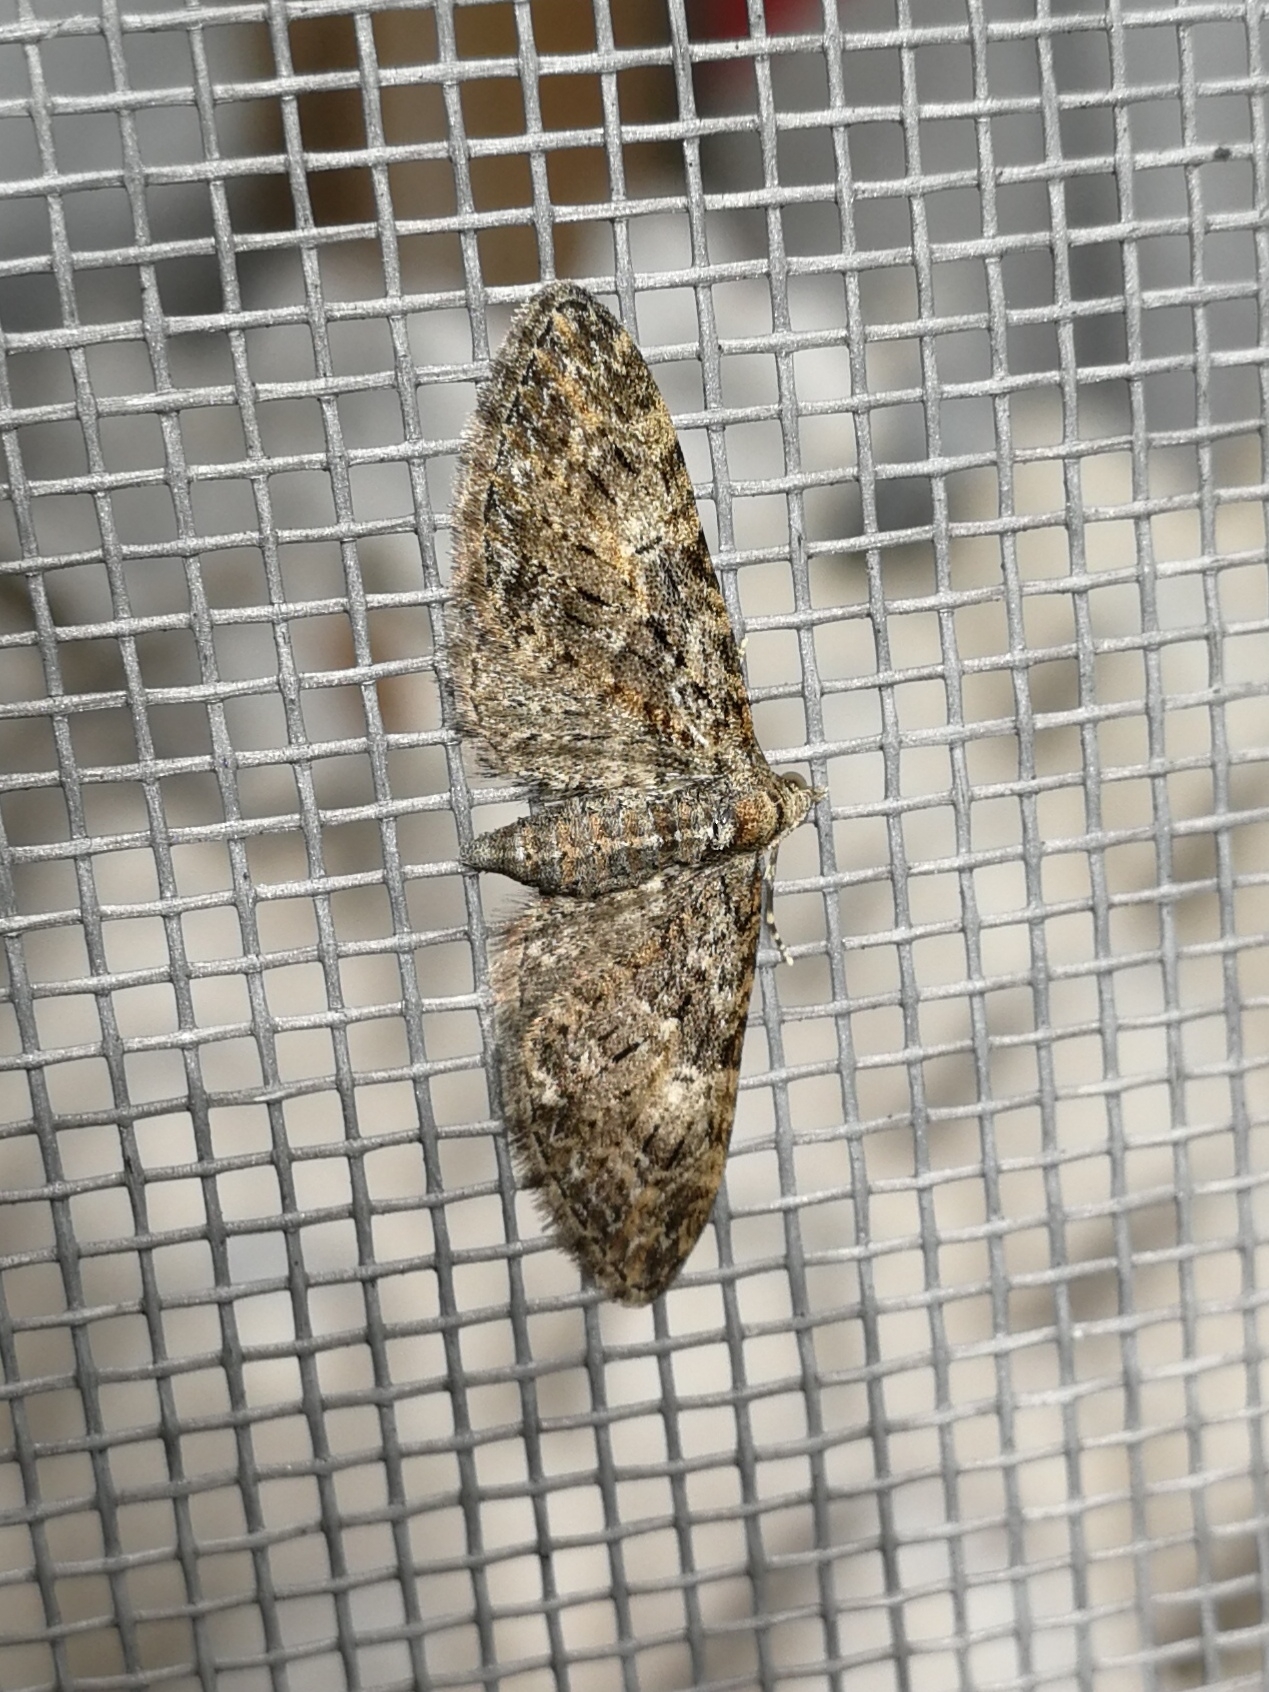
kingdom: Animalia
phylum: Arthropoda
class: Insecta
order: Lepidoptera
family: Geometridae
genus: Eupithecia
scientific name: Eupithecia abbreviata
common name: Brindled pug
